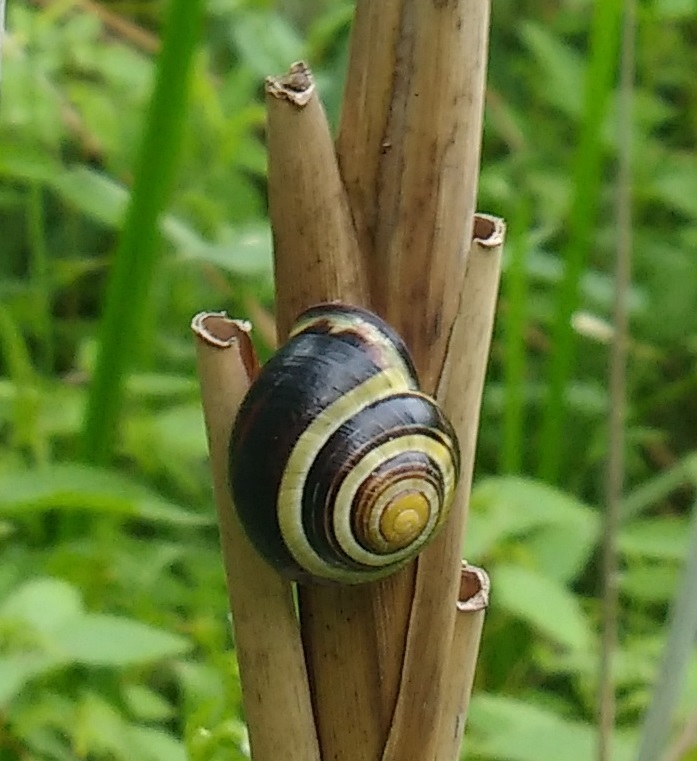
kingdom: Animalia
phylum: Mollusca
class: Gastropoda
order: Stylommatophora
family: Helicidae
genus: Cepaea
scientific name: Cepaea nemoralis
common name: Grovesnail
